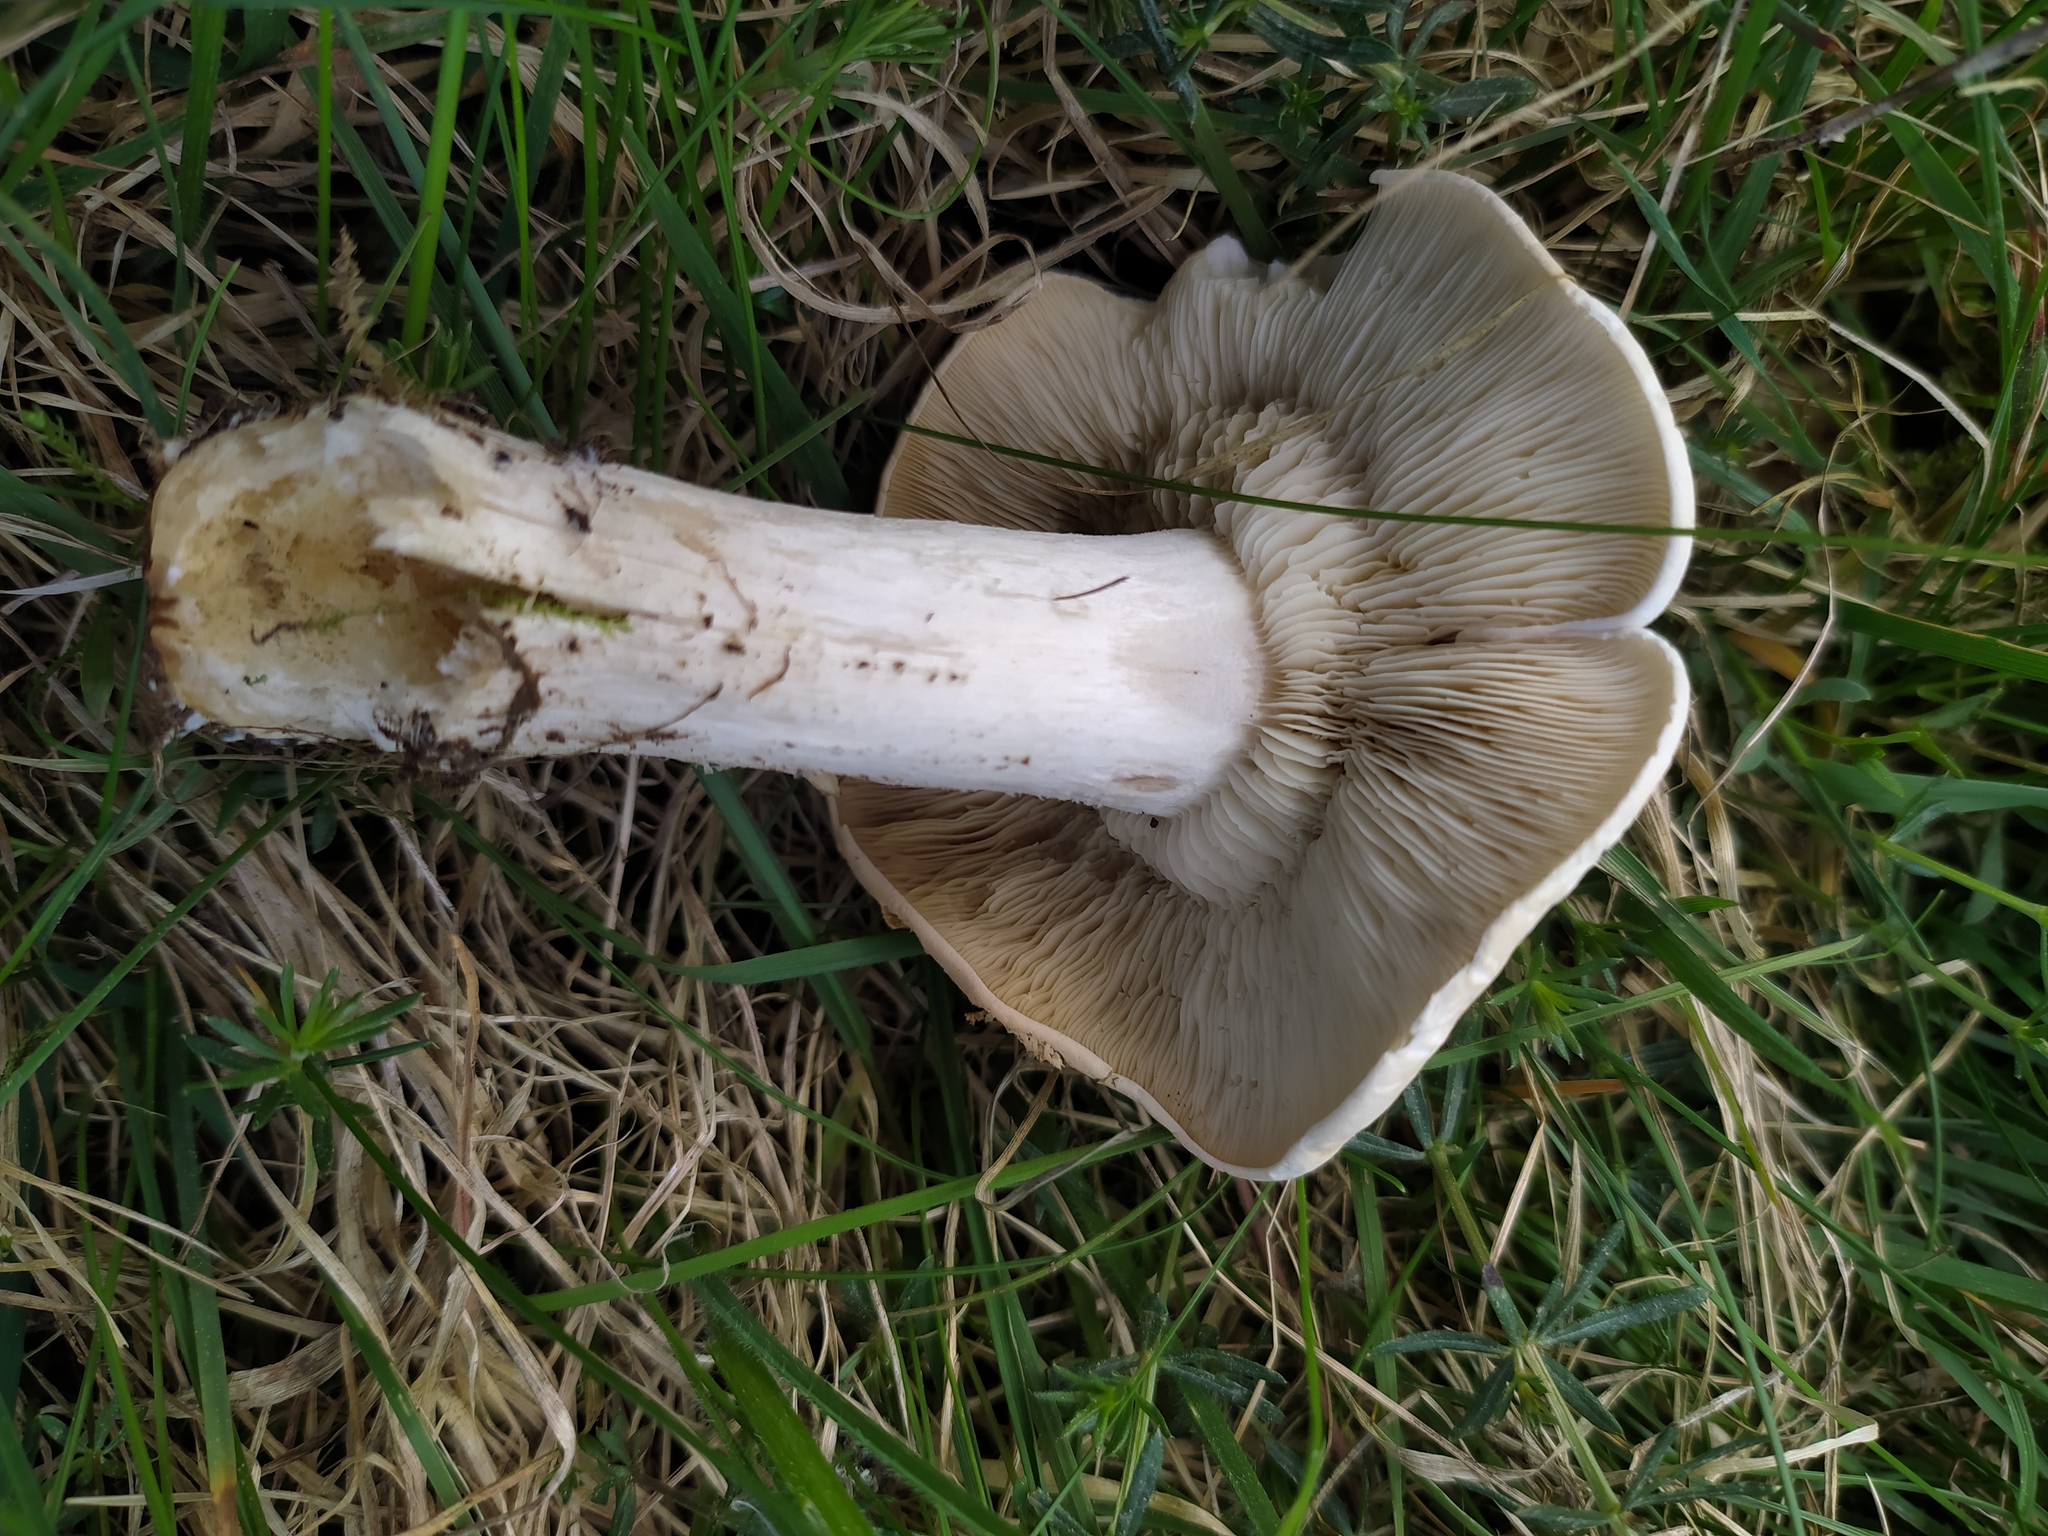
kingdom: Fungi
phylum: Basidiomycota
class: Agaricomycetes
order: Agaricales
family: Lyophyllaceae
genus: Calocybe
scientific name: Calocybe gambosa
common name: St. george's mushroom
